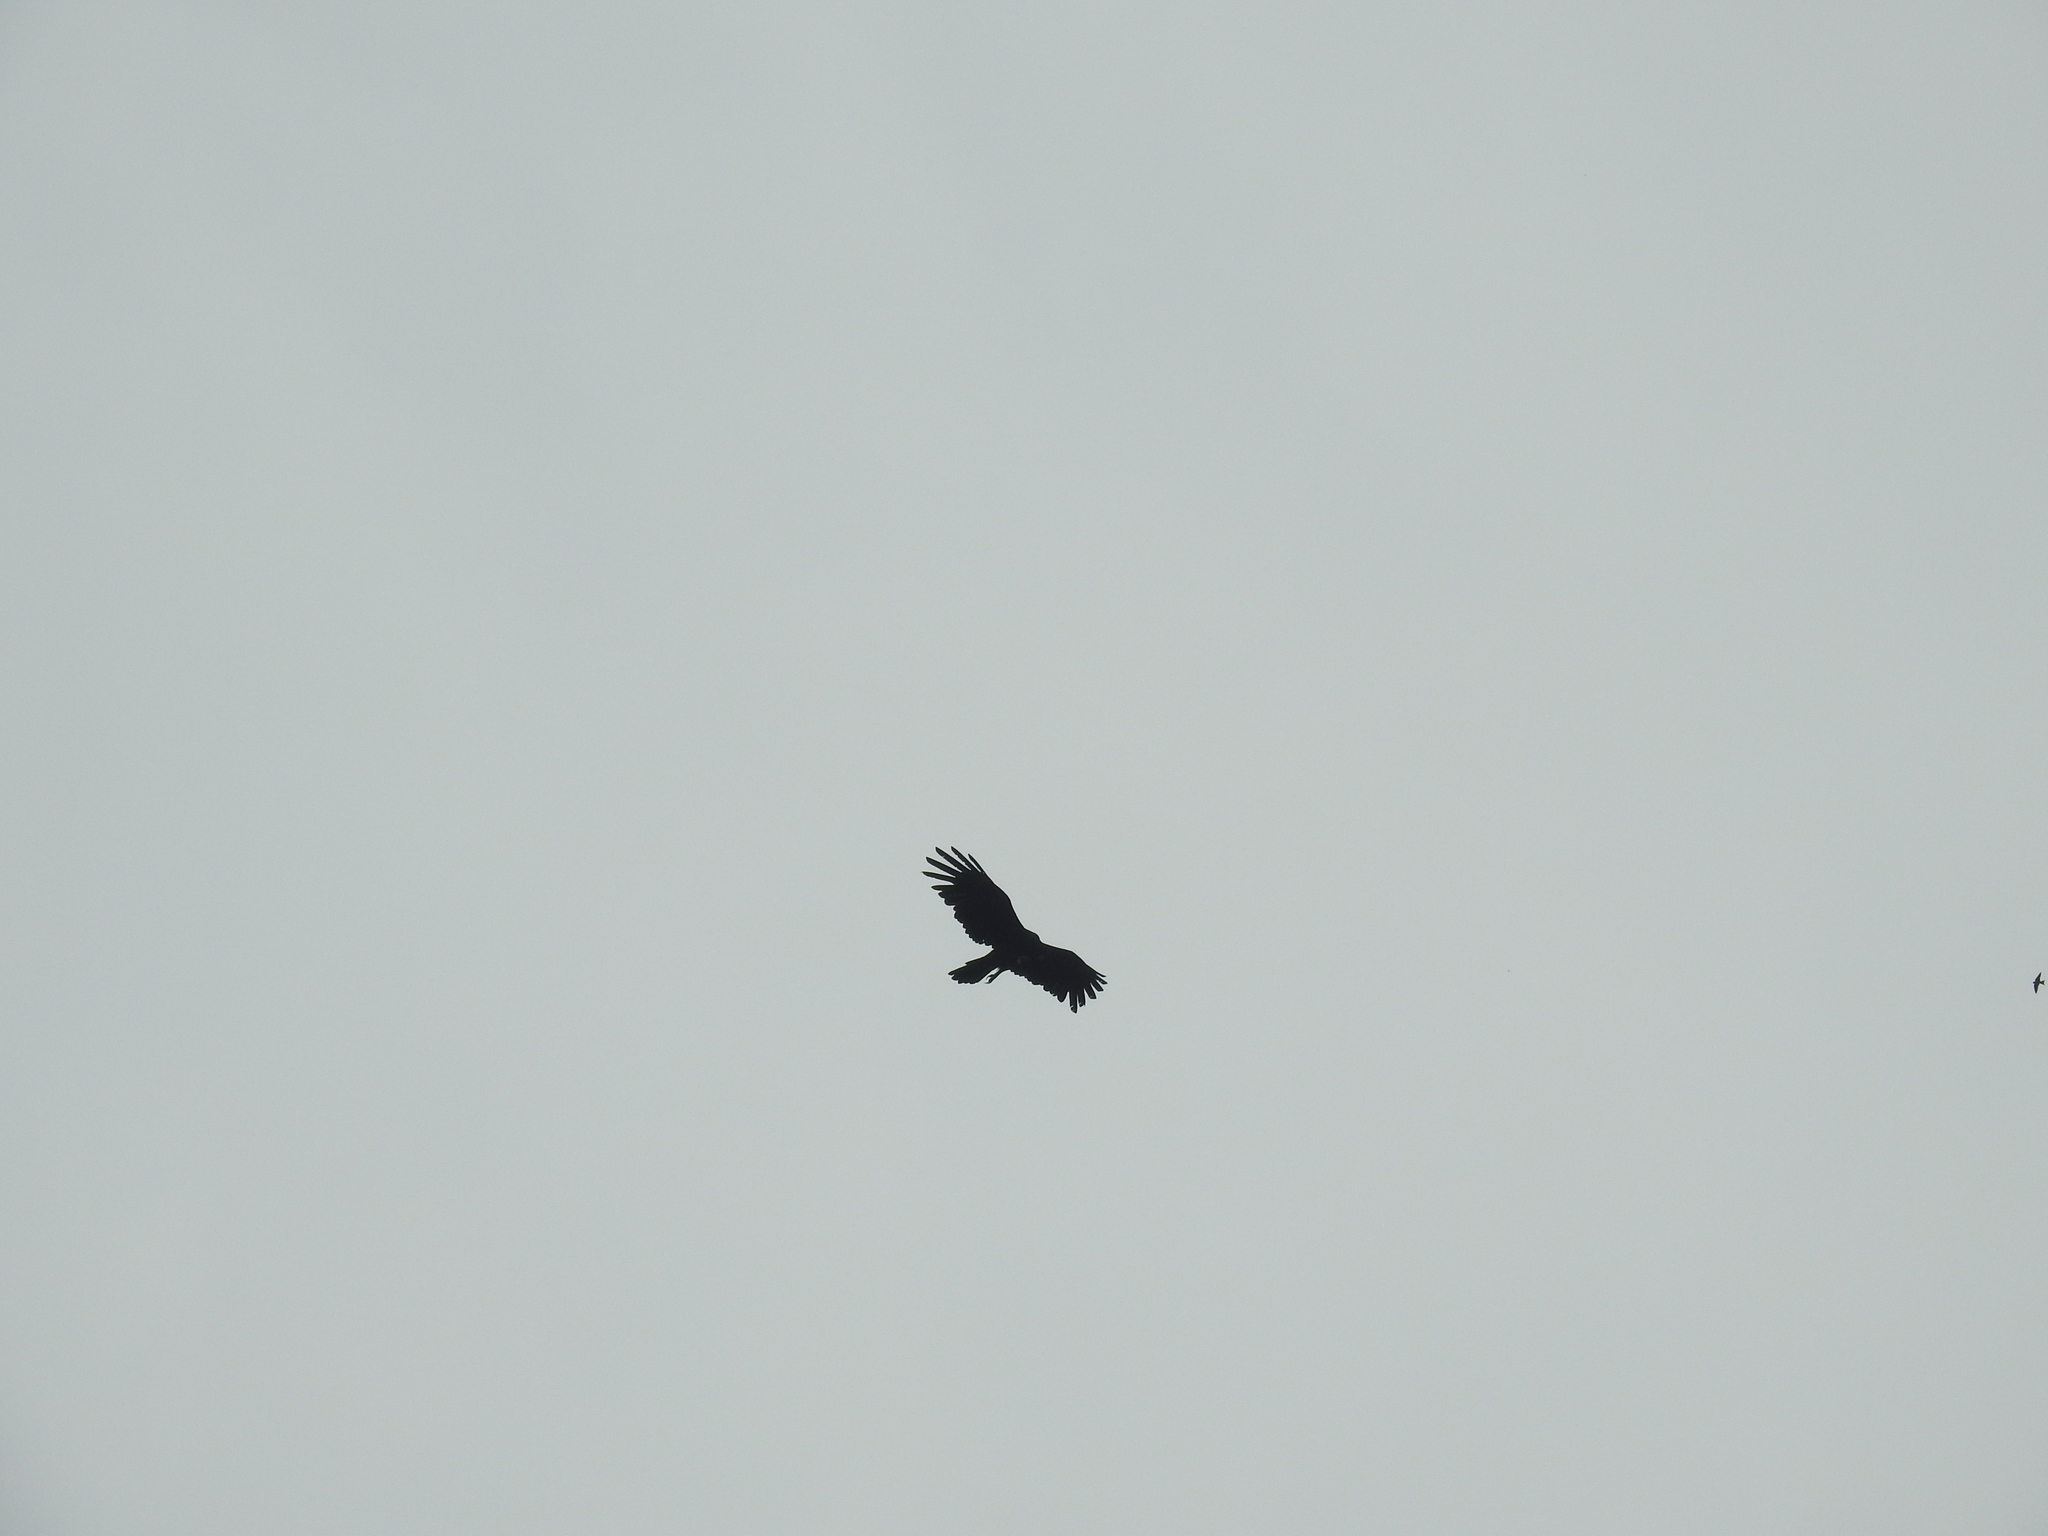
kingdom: Animalia
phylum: Chordata
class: Aves
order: Accipitriformes
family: Accipitridae
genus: Ictinaetus
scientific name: Ictinaetus malayensis
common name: Black eagle
